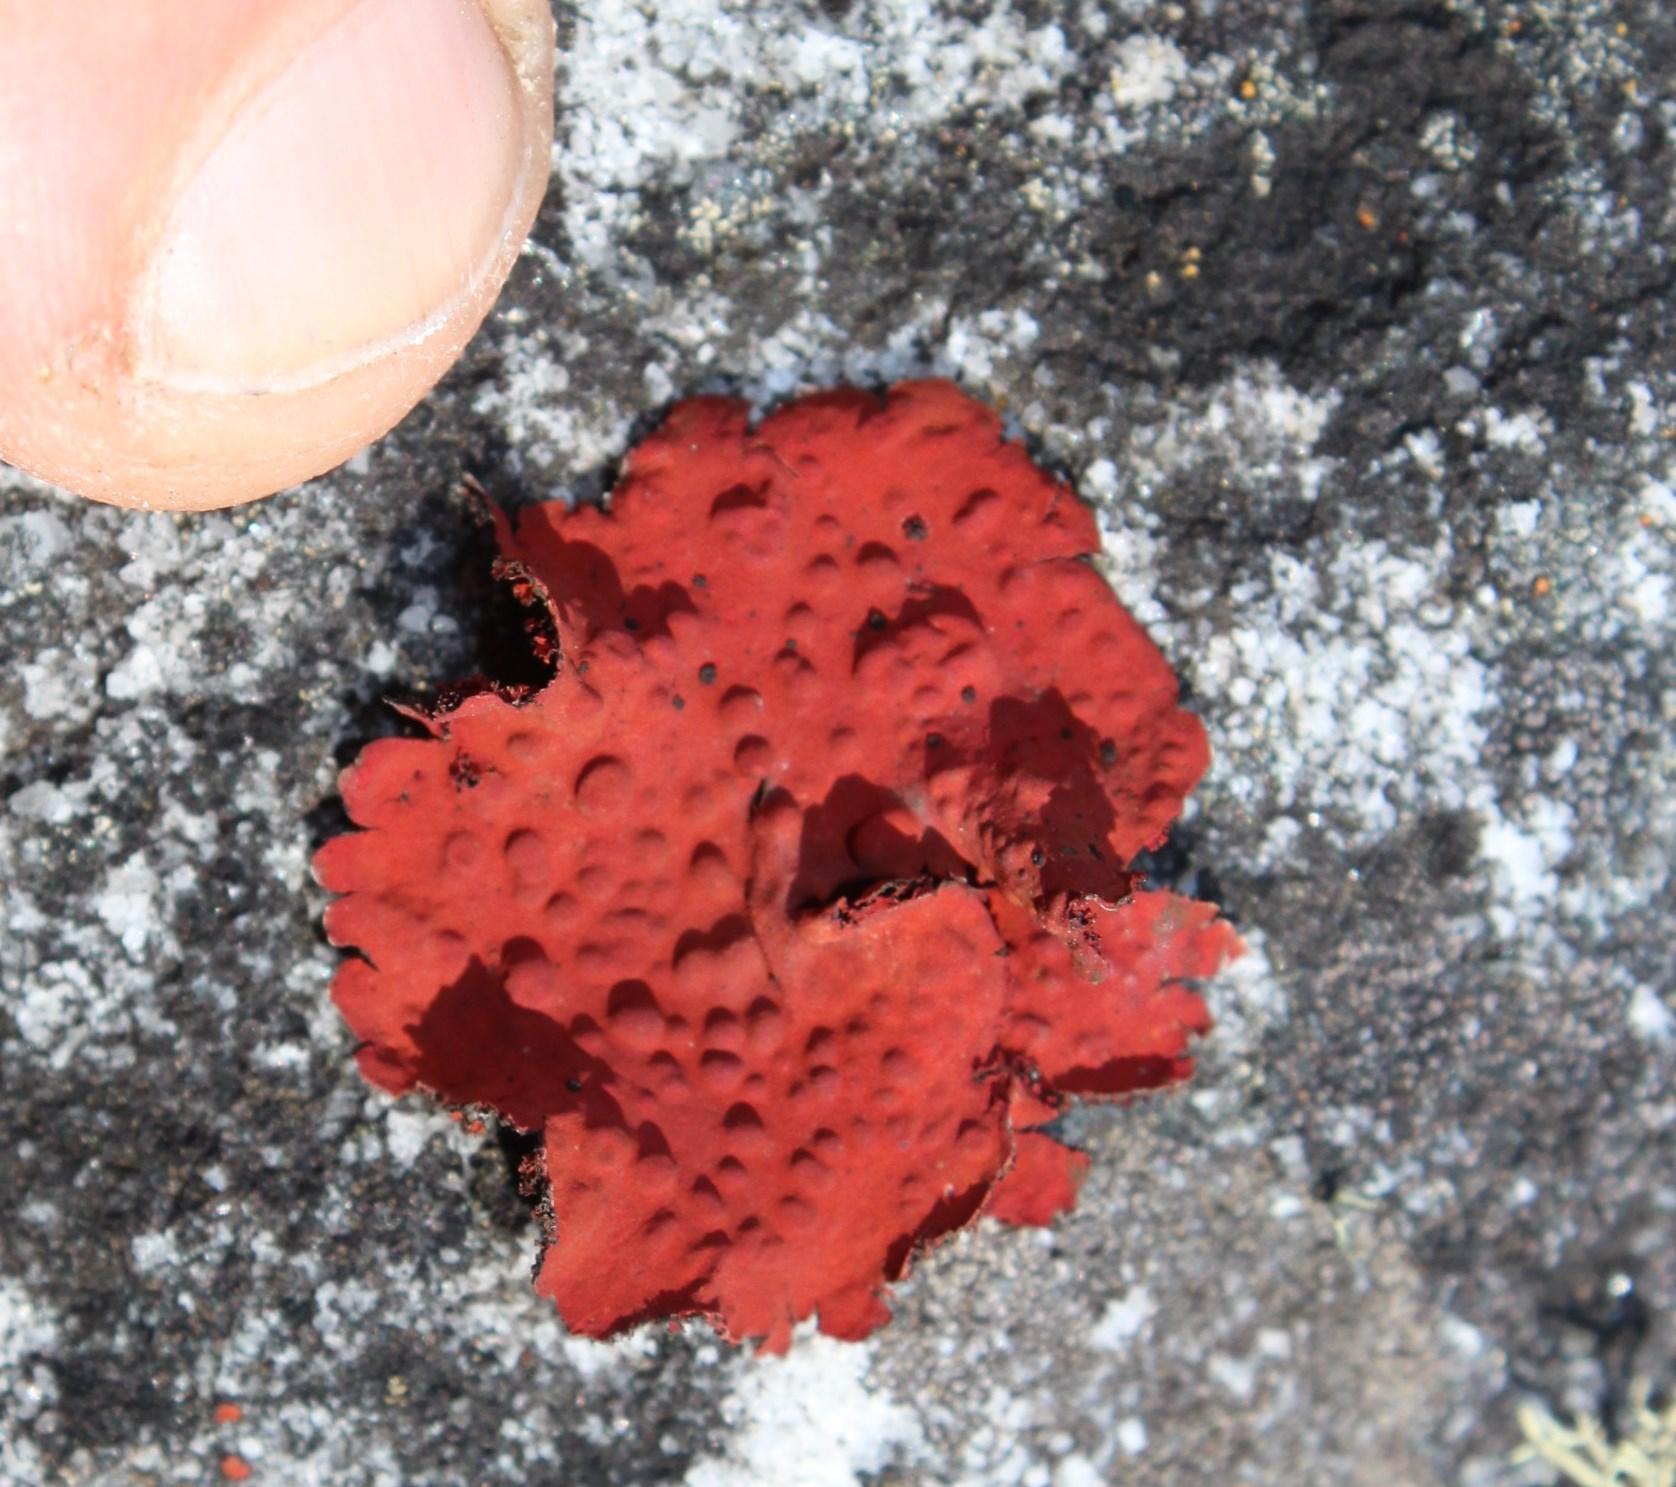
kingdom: Fungi
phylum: Ascomycota
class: Lecanoromycetes
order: Umbilicariales
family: Umbilicariaceae
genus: Lasallia
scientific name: Lasallia rubiginosa
